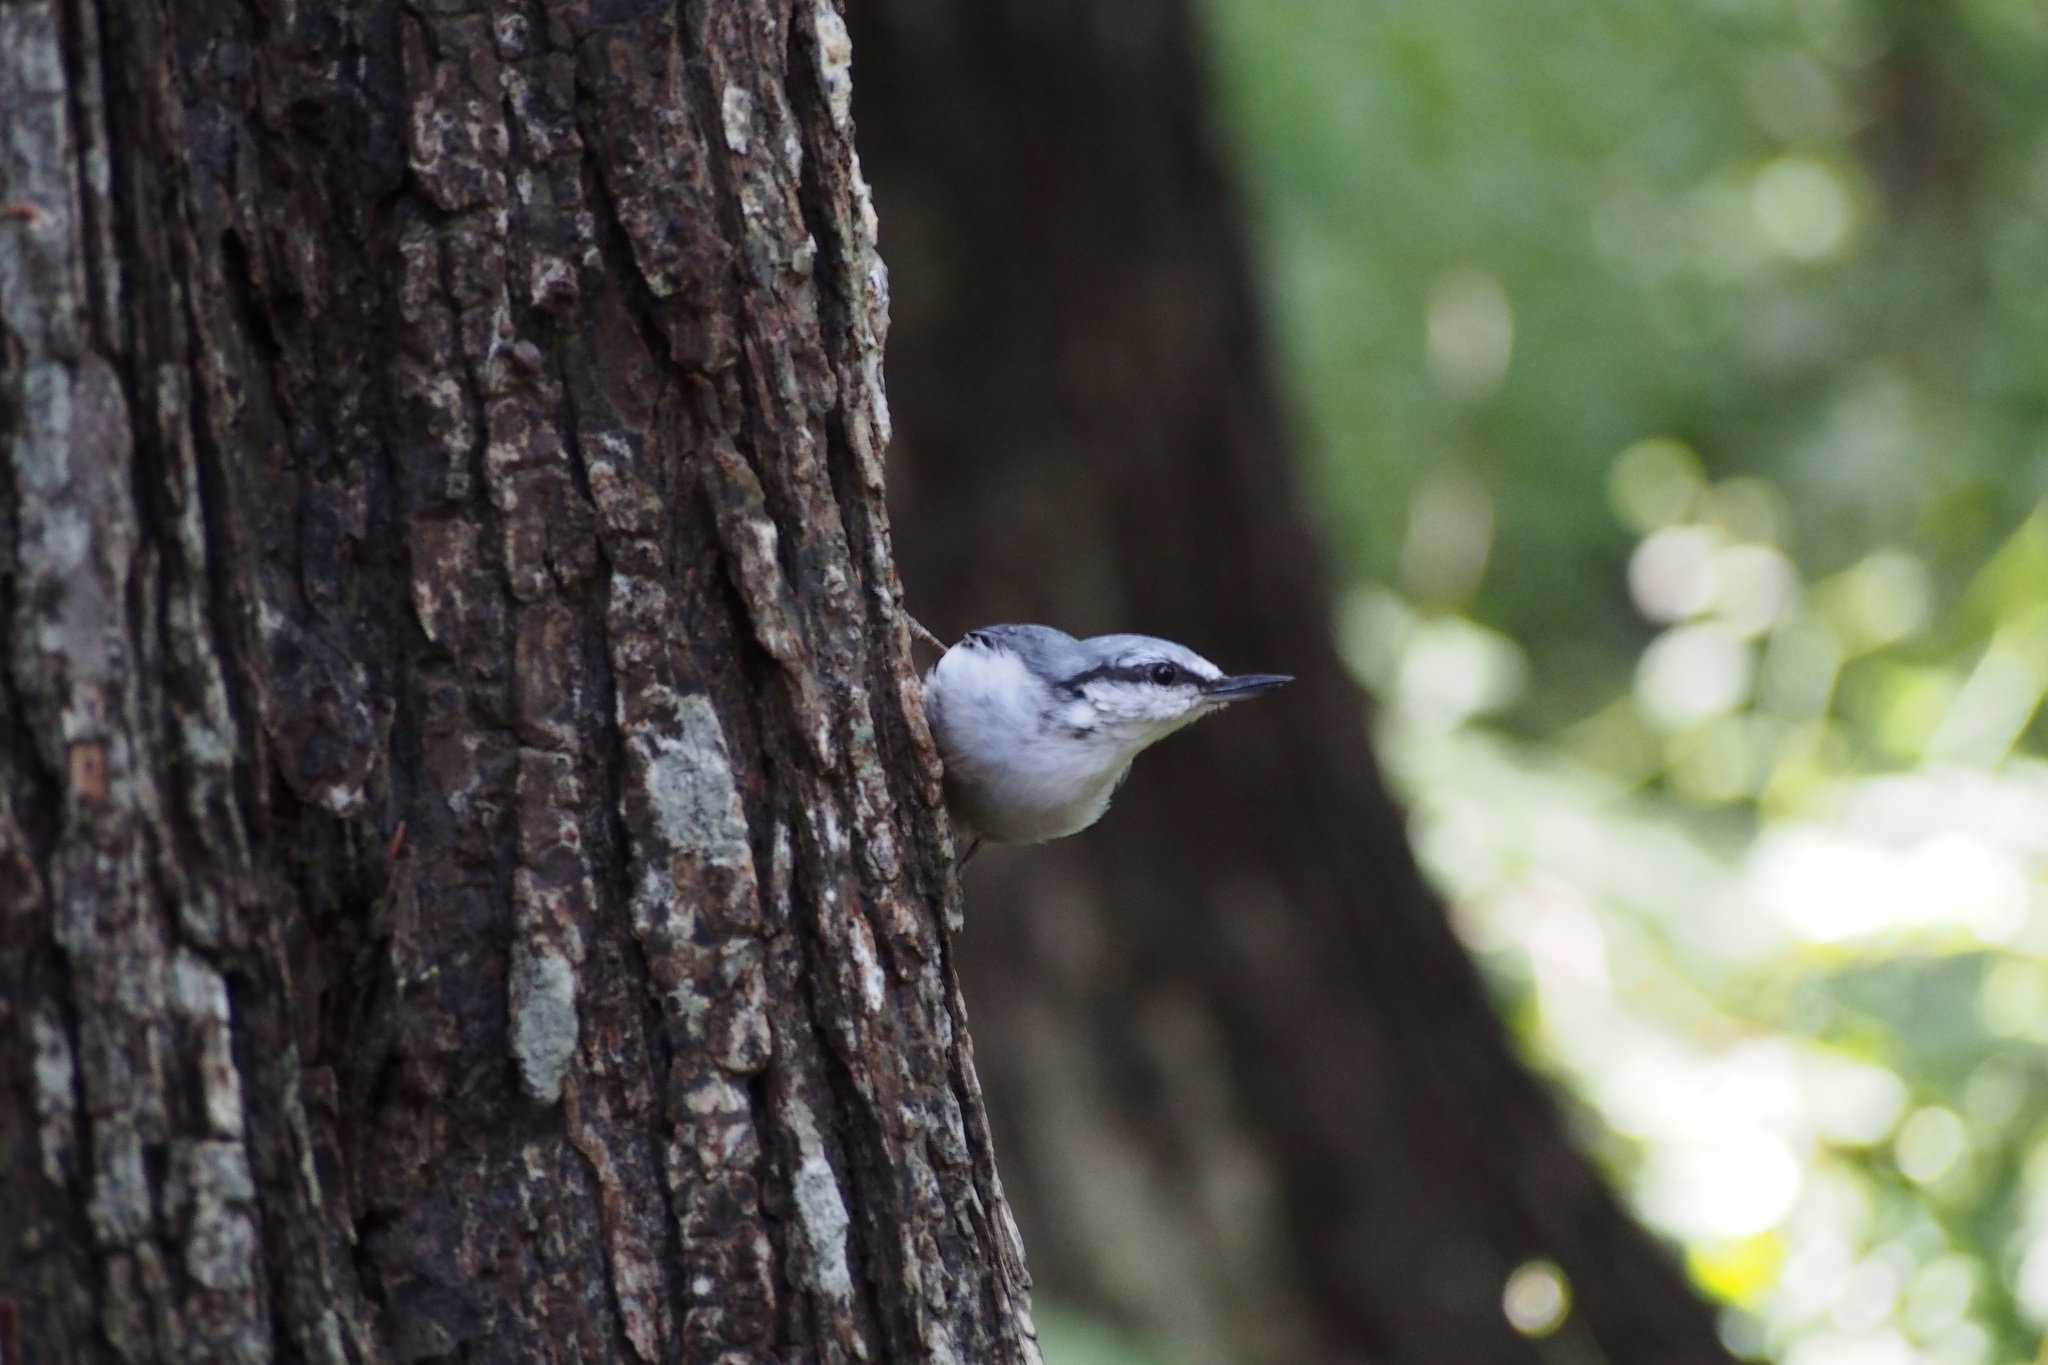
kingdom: Animalia
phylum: Chordata
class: Aves
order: Passeriformes
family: Sittidae
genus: Sitta
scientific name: Sitta europaea
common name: Eurasian nuthatch
